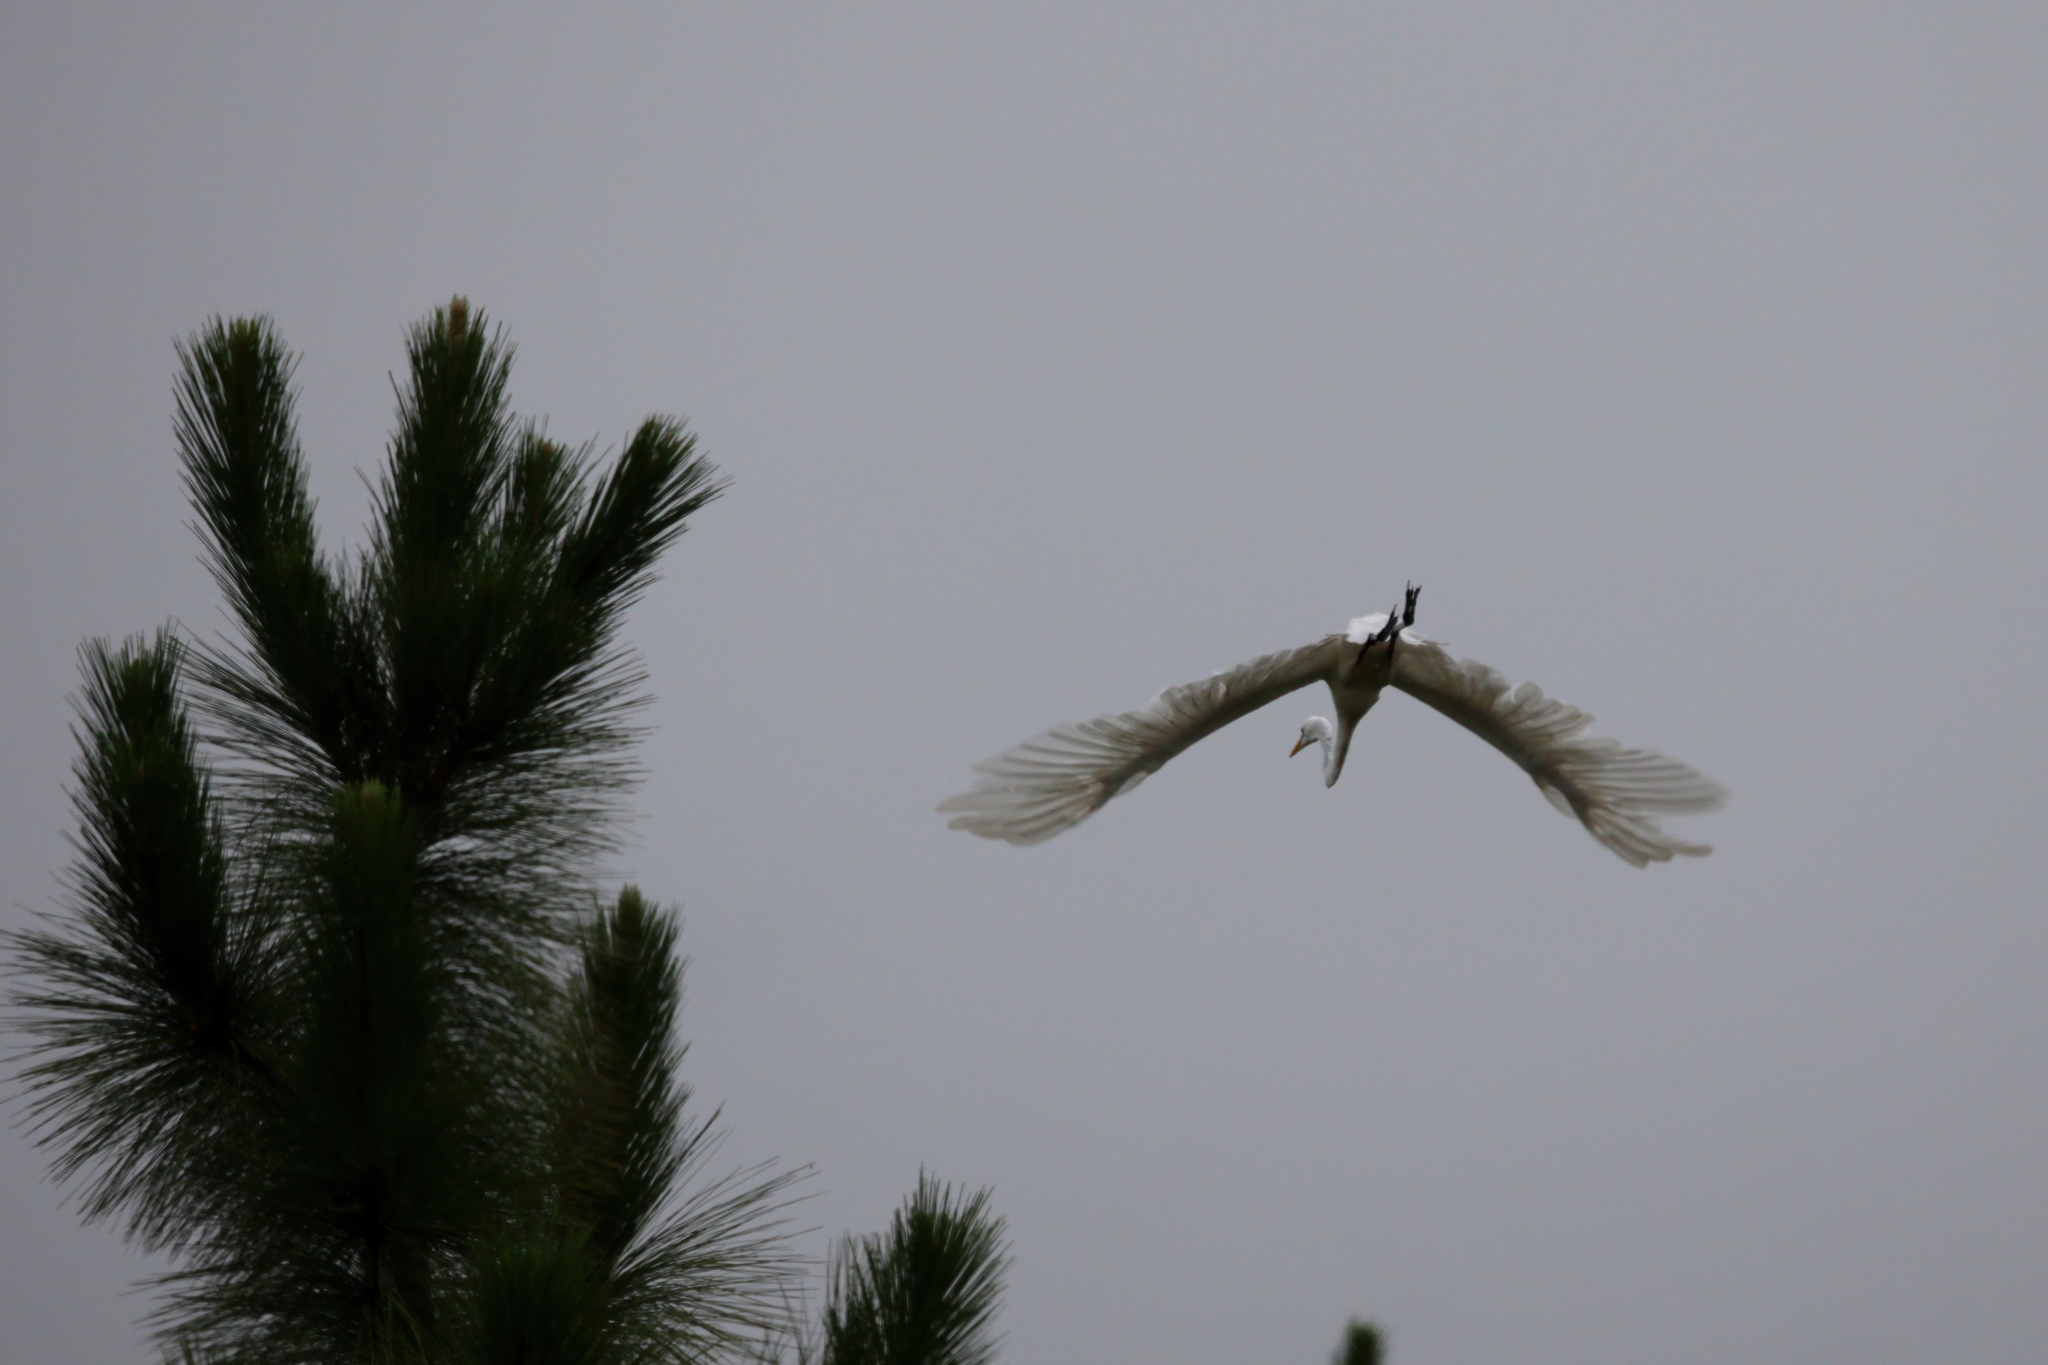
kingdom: Animalia
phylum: Chordata
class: Aves
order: Pelecaniformes
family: Ardeidae
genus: Ardea
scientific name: Ardea alba
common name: Great egret
